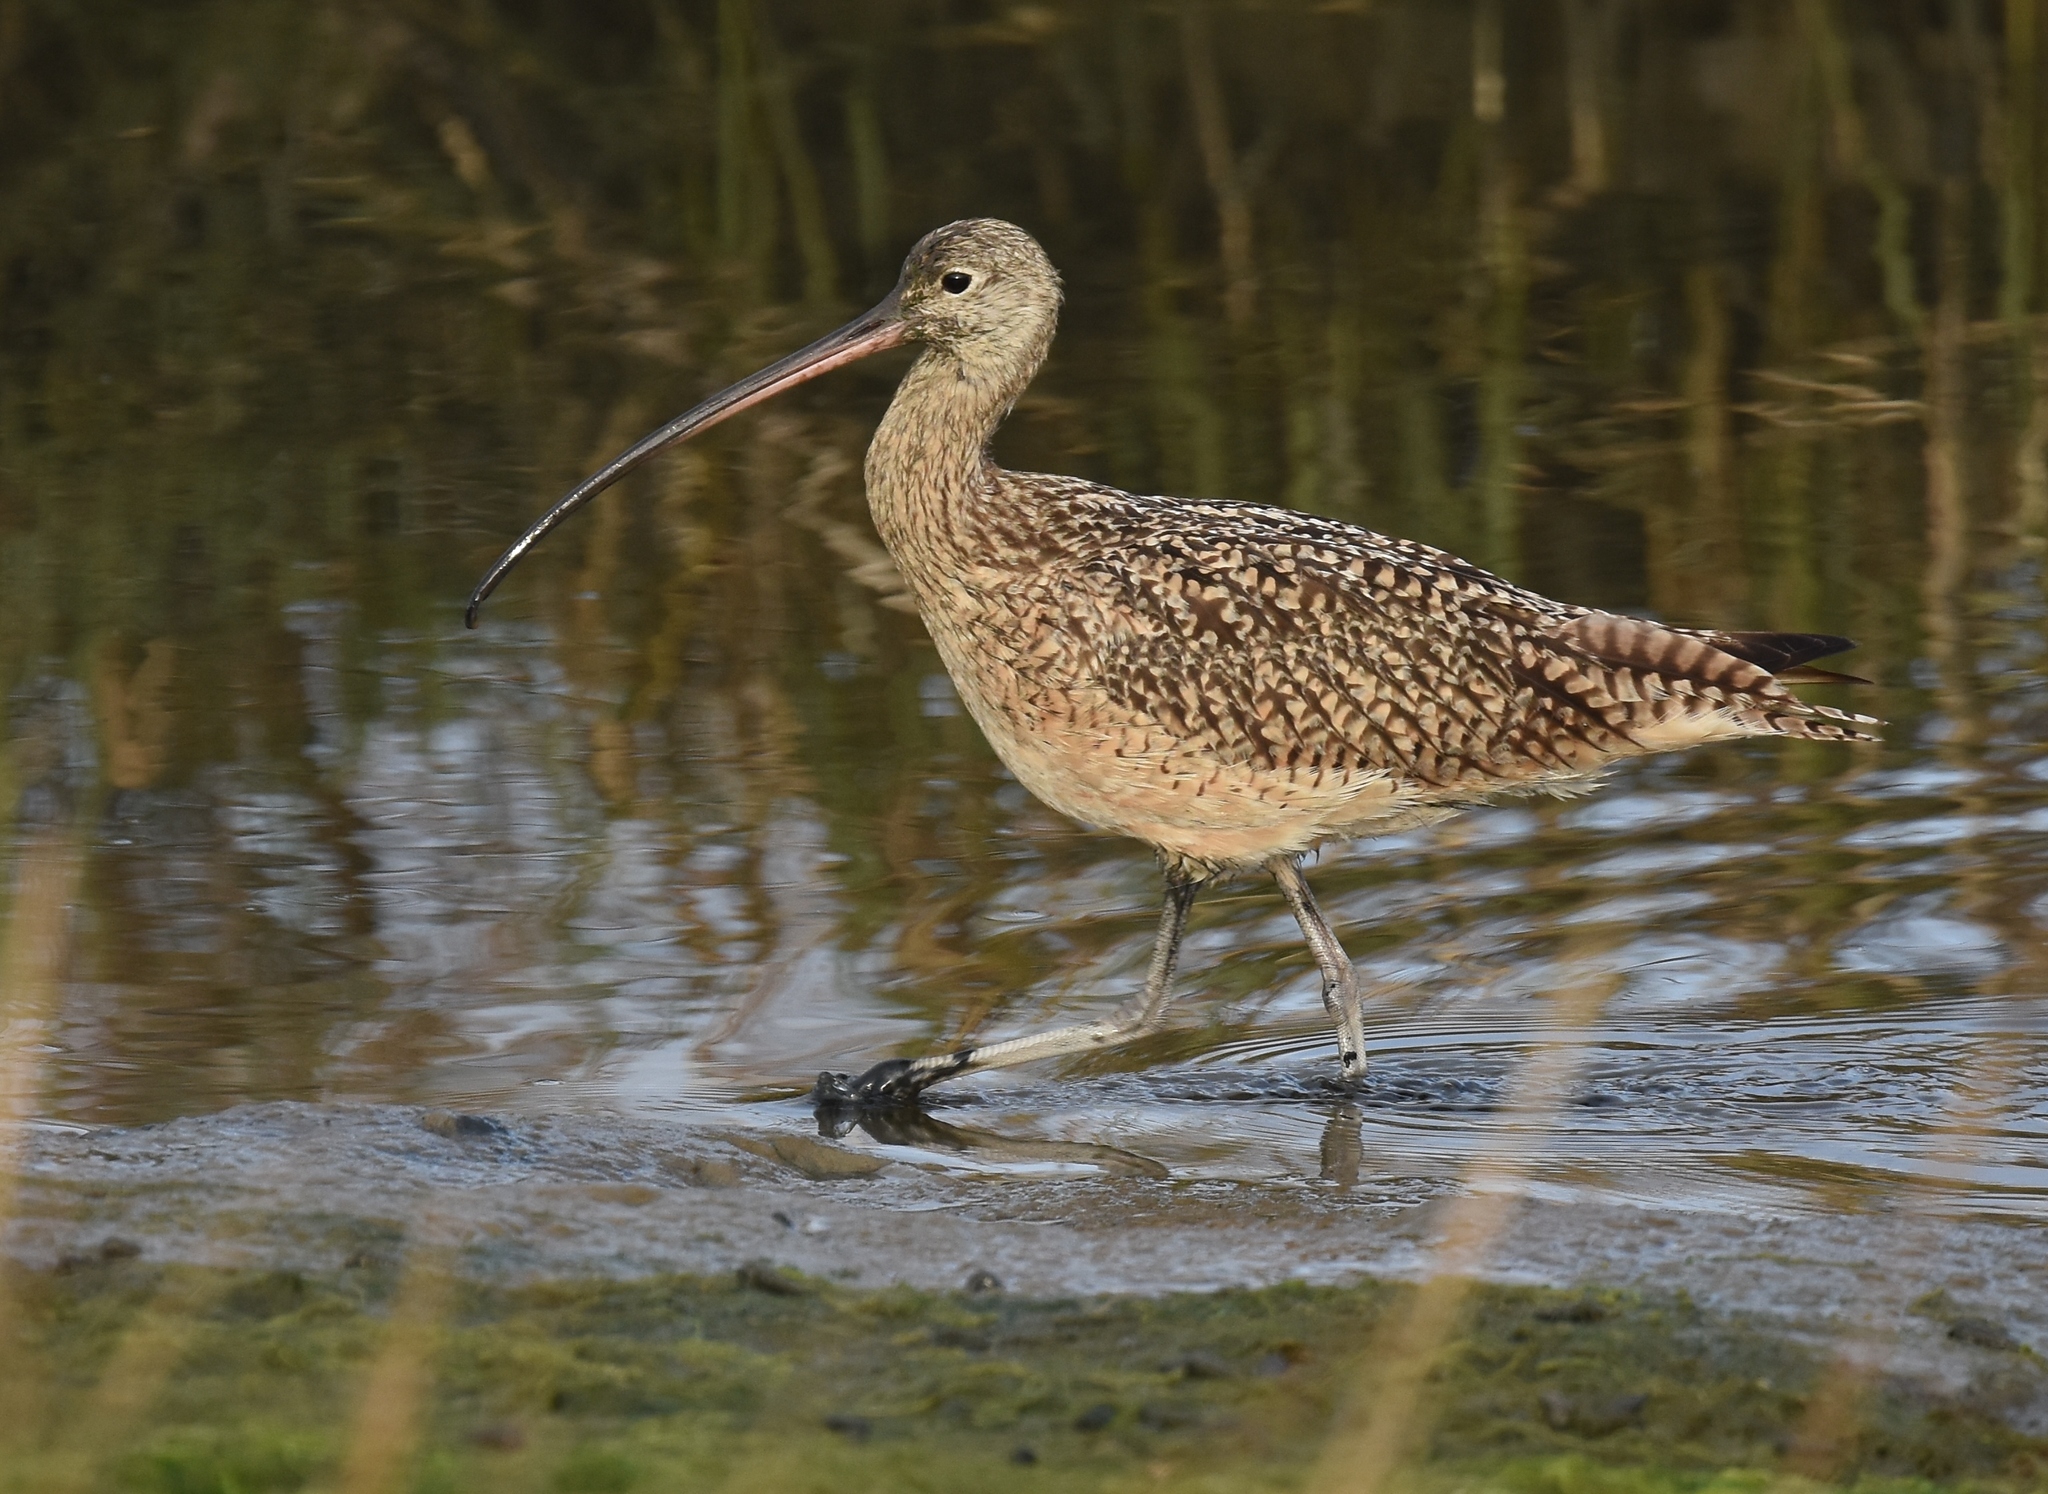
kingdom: Animalia
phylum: Chordata
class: Aves
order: Charadriiformes
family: Scolopacidae
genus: Numenius
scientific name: Numenius americanus
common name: Long-billed curlew
